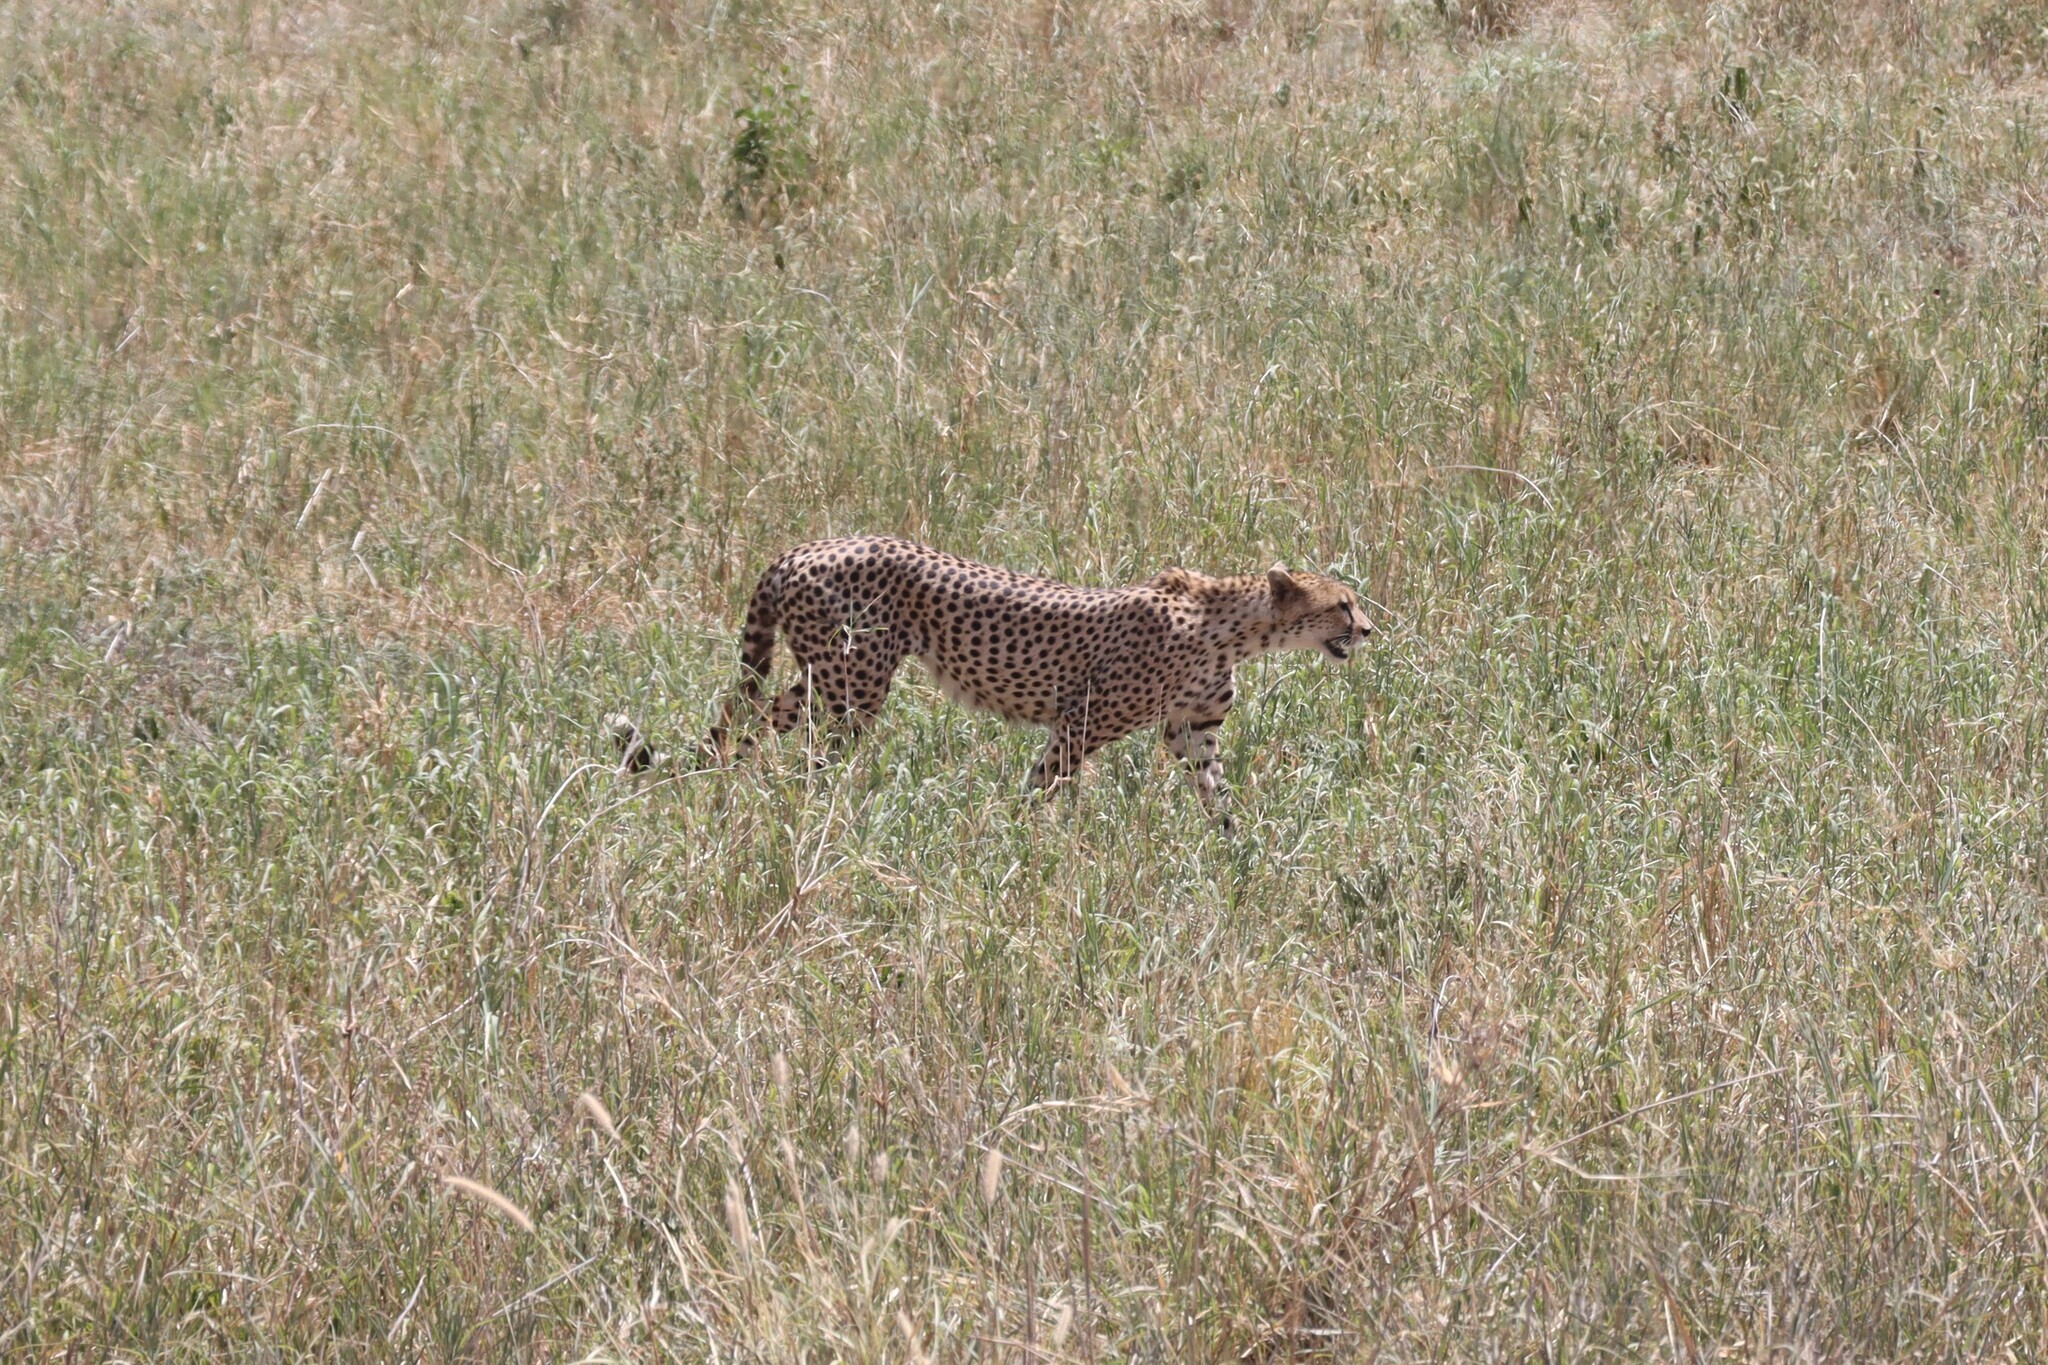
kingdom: Animalia
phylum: Chordata
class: Mammalia
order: Carnivora
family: Felidae
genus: Acinonyx
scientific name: Acinonyx jubatus
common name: Cheetah
